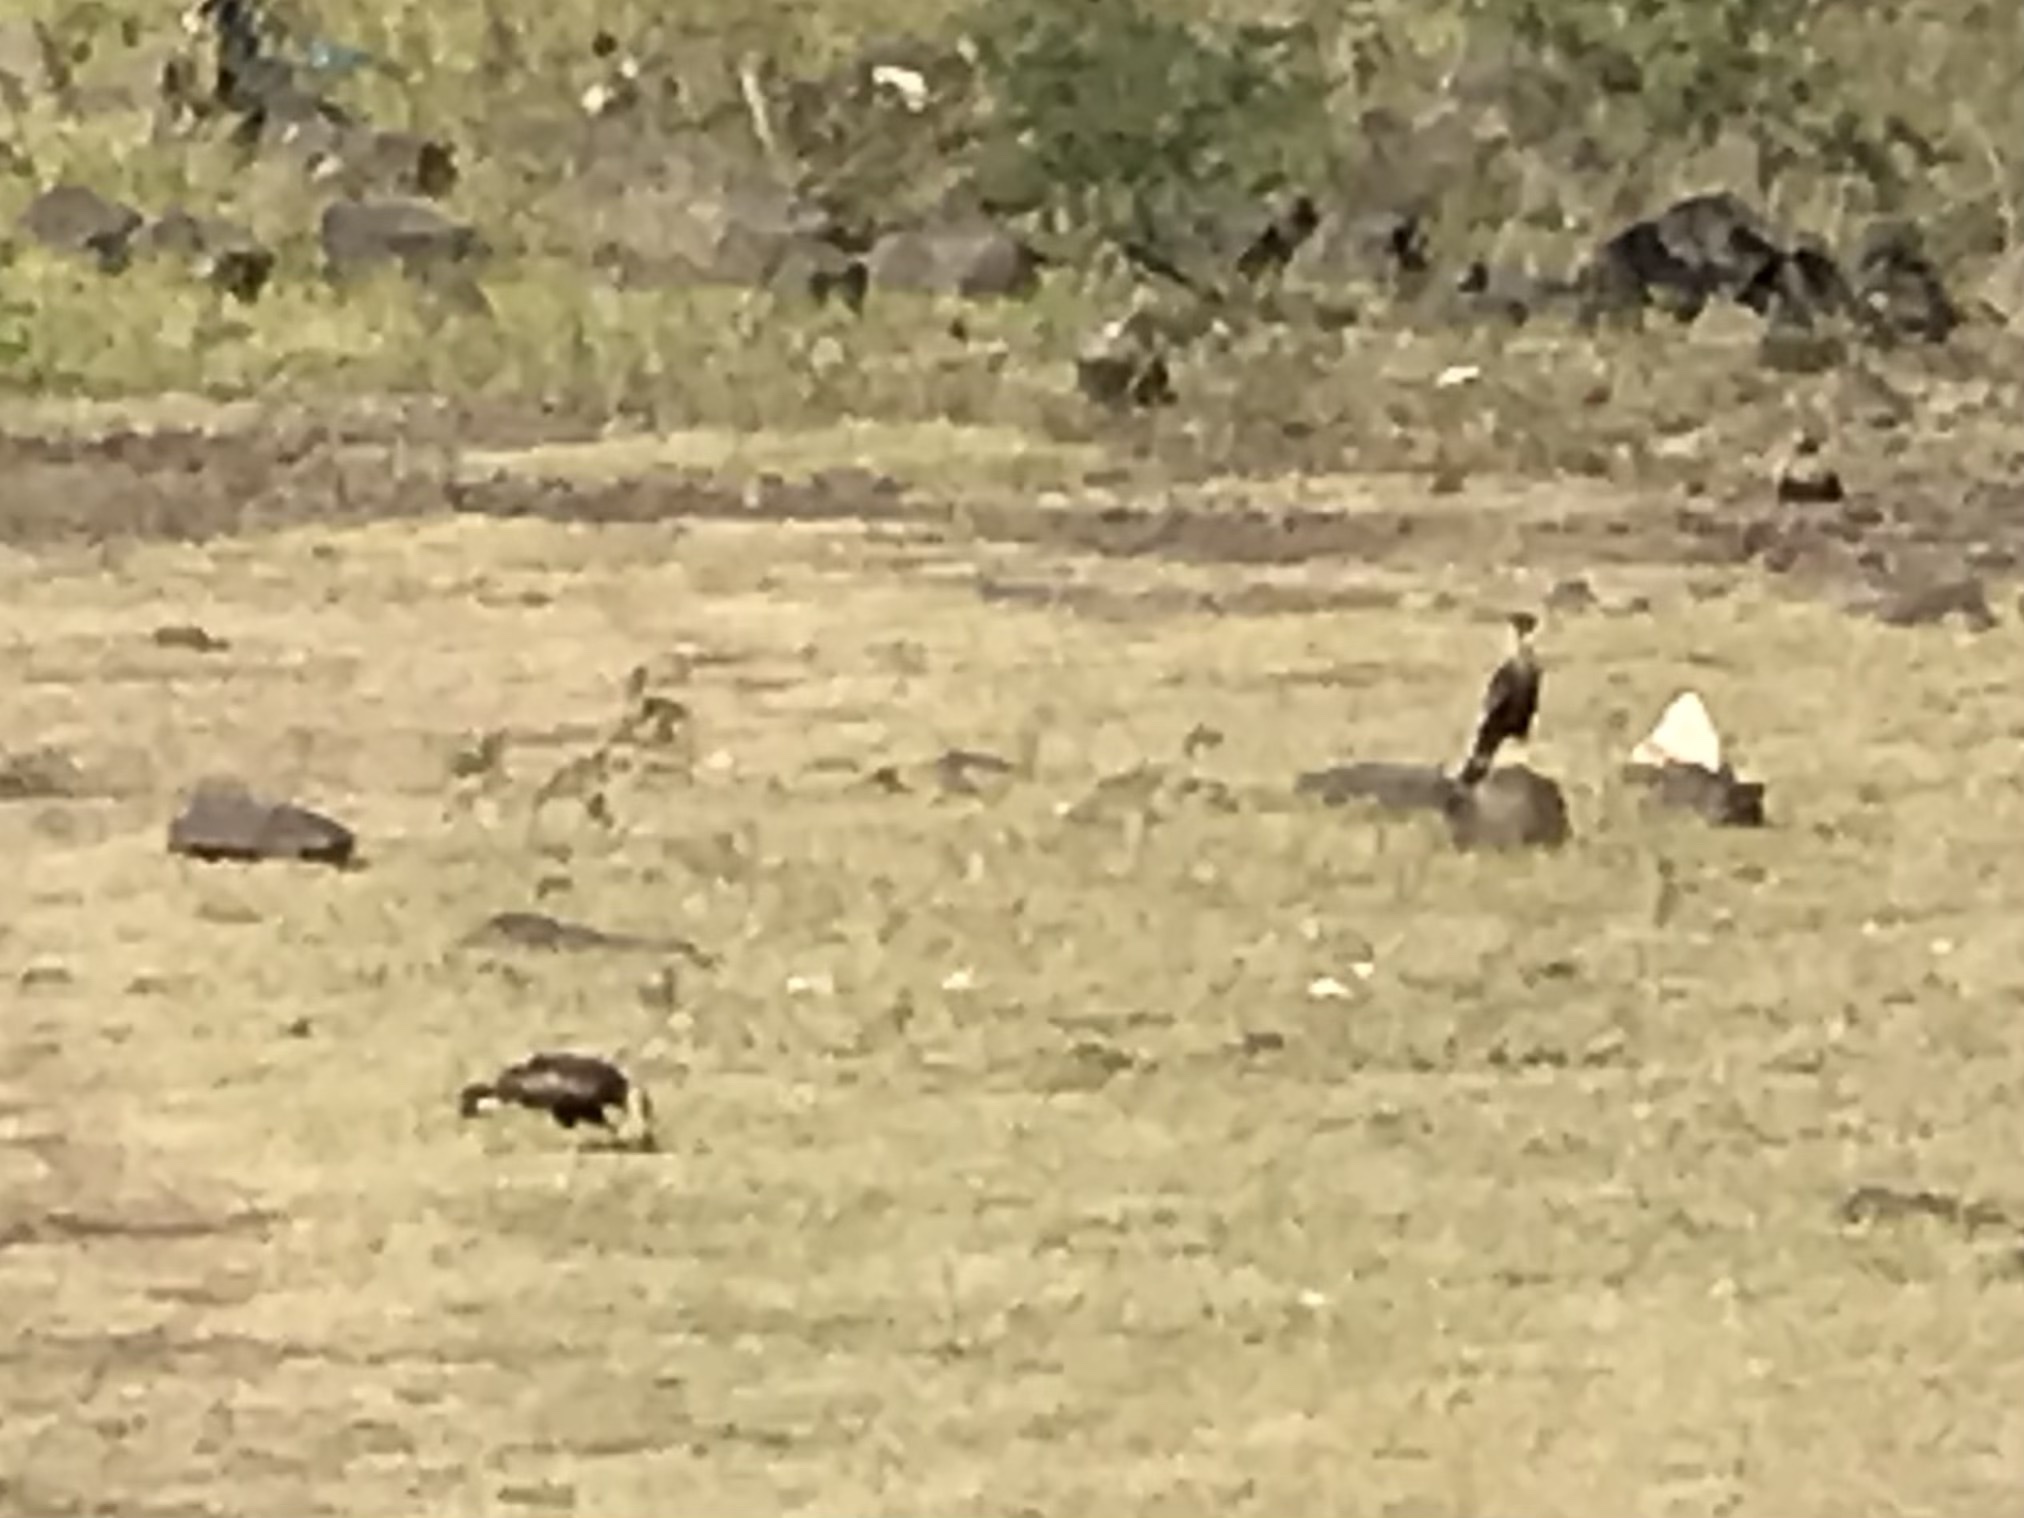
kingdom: Animalia
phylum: Chordata
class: Aves
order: Falconiformes
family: Falconidae
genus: Caracara
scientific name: Caracara plancus
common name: Southern caracara
